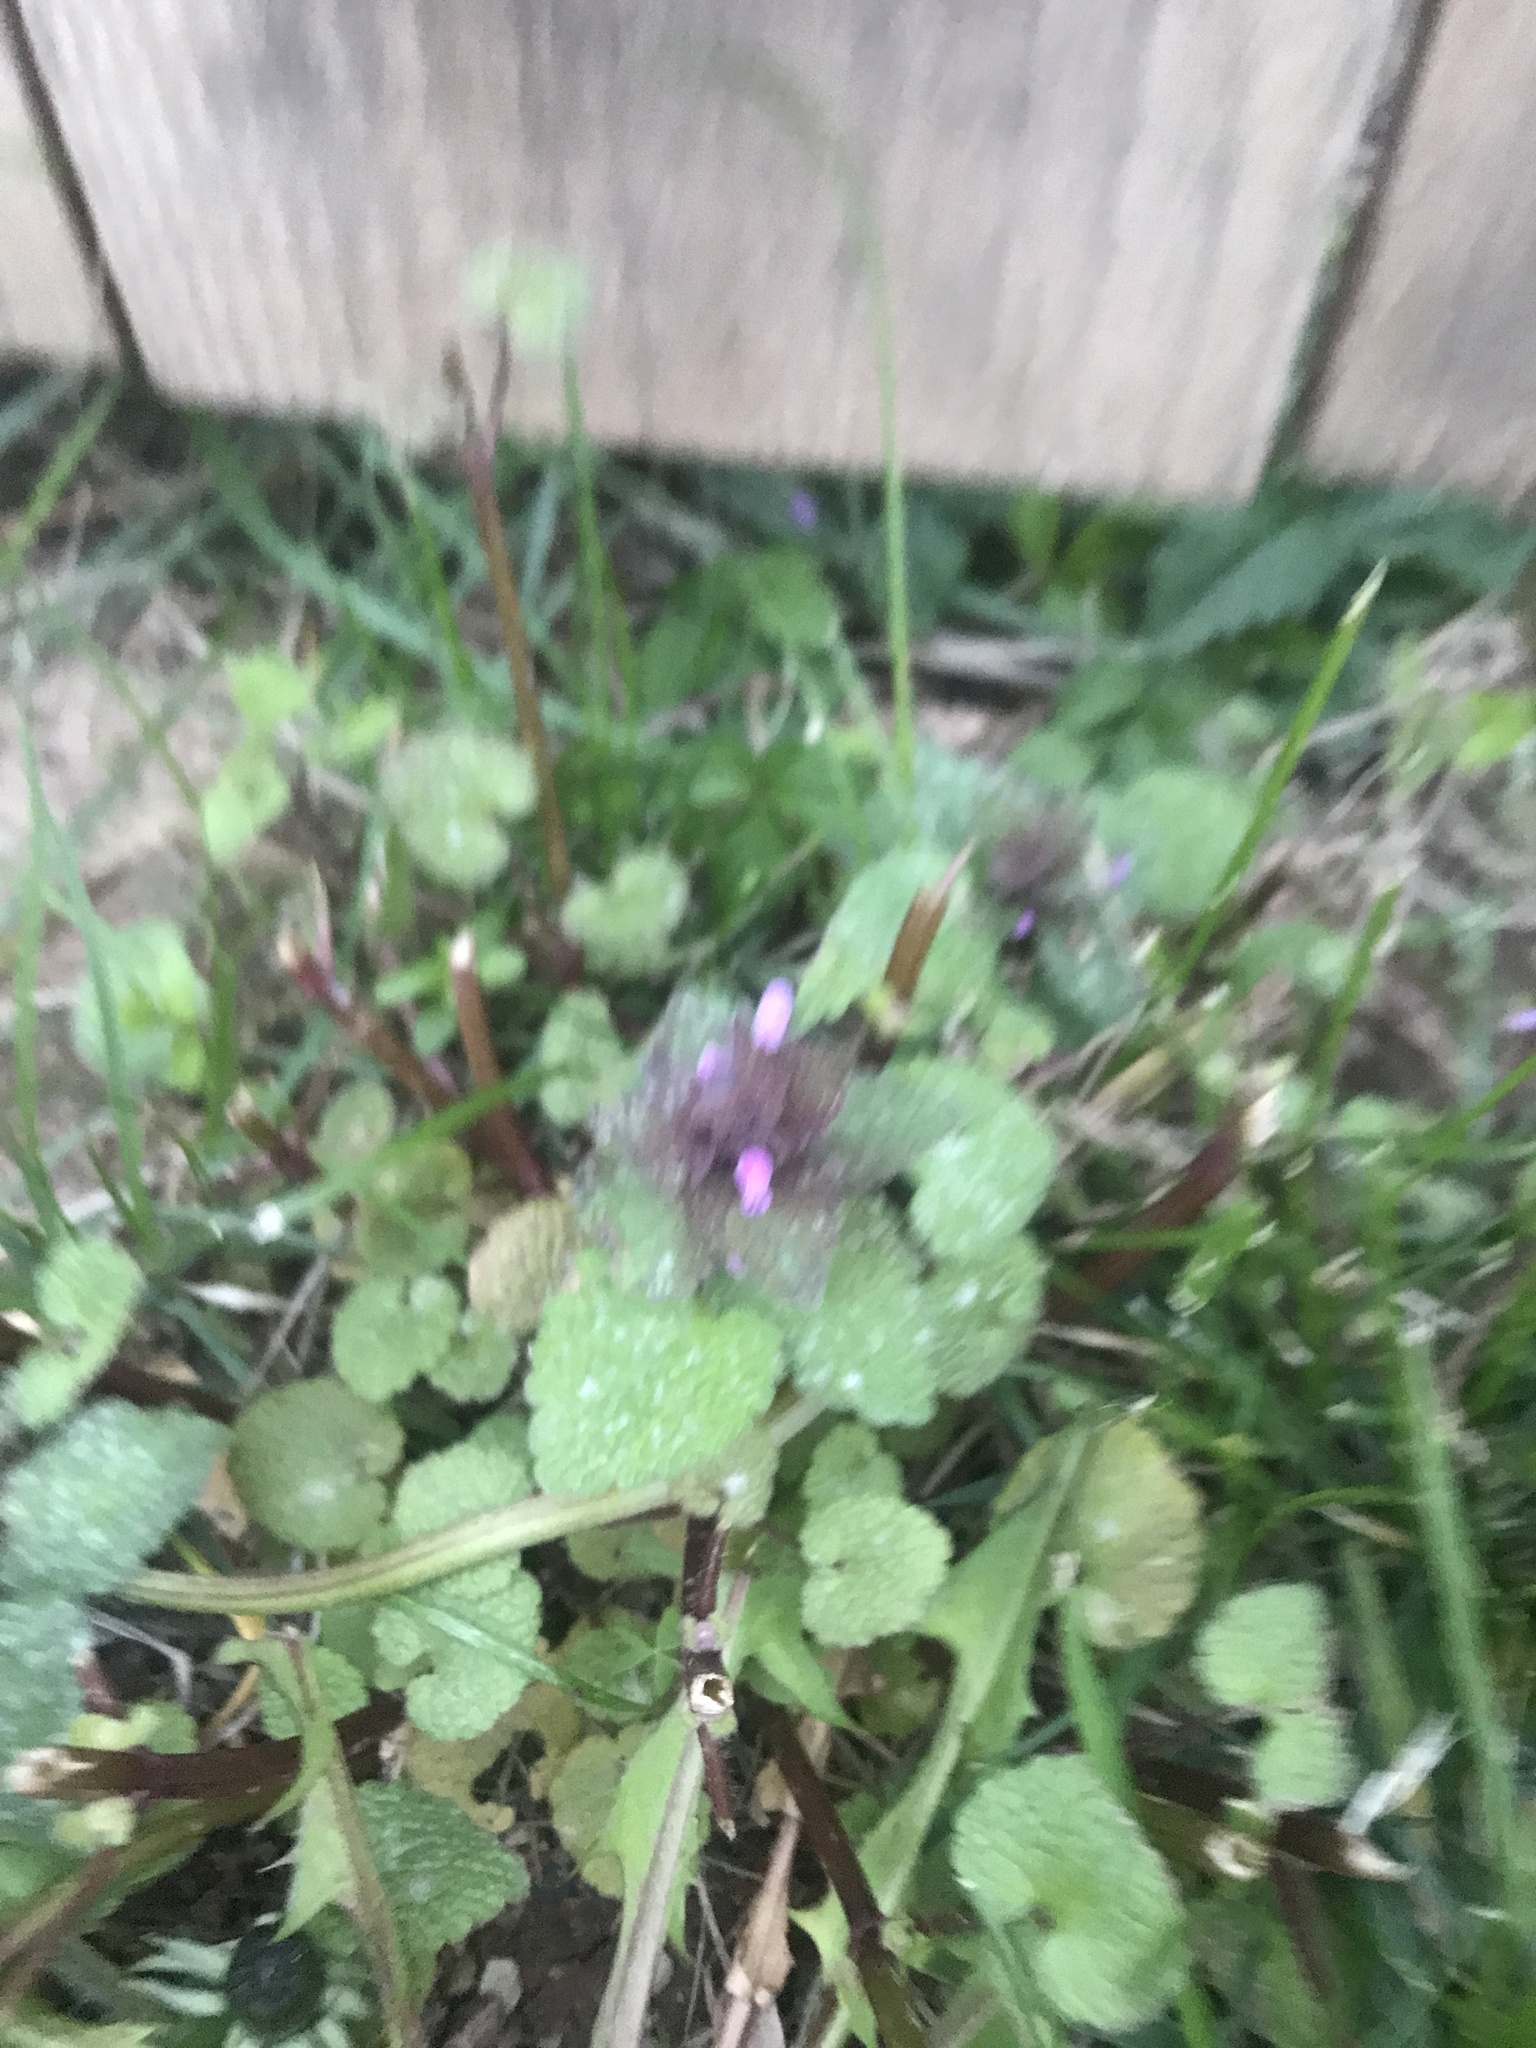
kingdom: Plantae
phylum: Tracheophyta
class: Magnoliopsida
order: Lamiales
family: Lamiaceae
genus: Lamium
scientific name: Lamium purpureum
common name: Red dead-nettle
